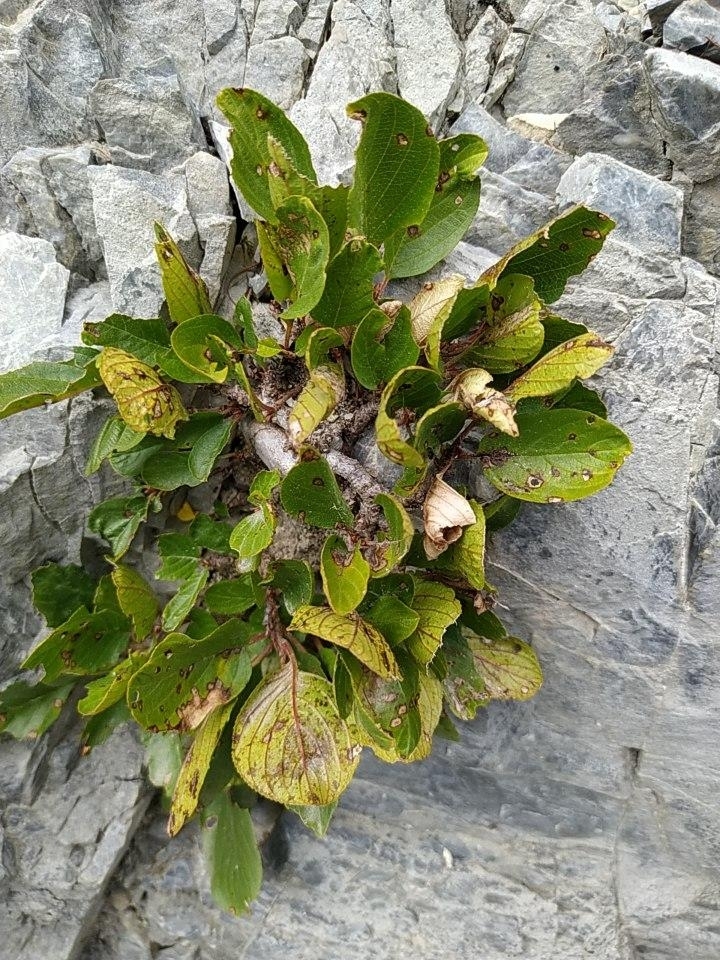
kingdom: Plantae
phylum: Tracheophyta
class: Magnoliopsida
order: Rosales
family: Rhamnaceae
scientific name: Rhamnaceae
